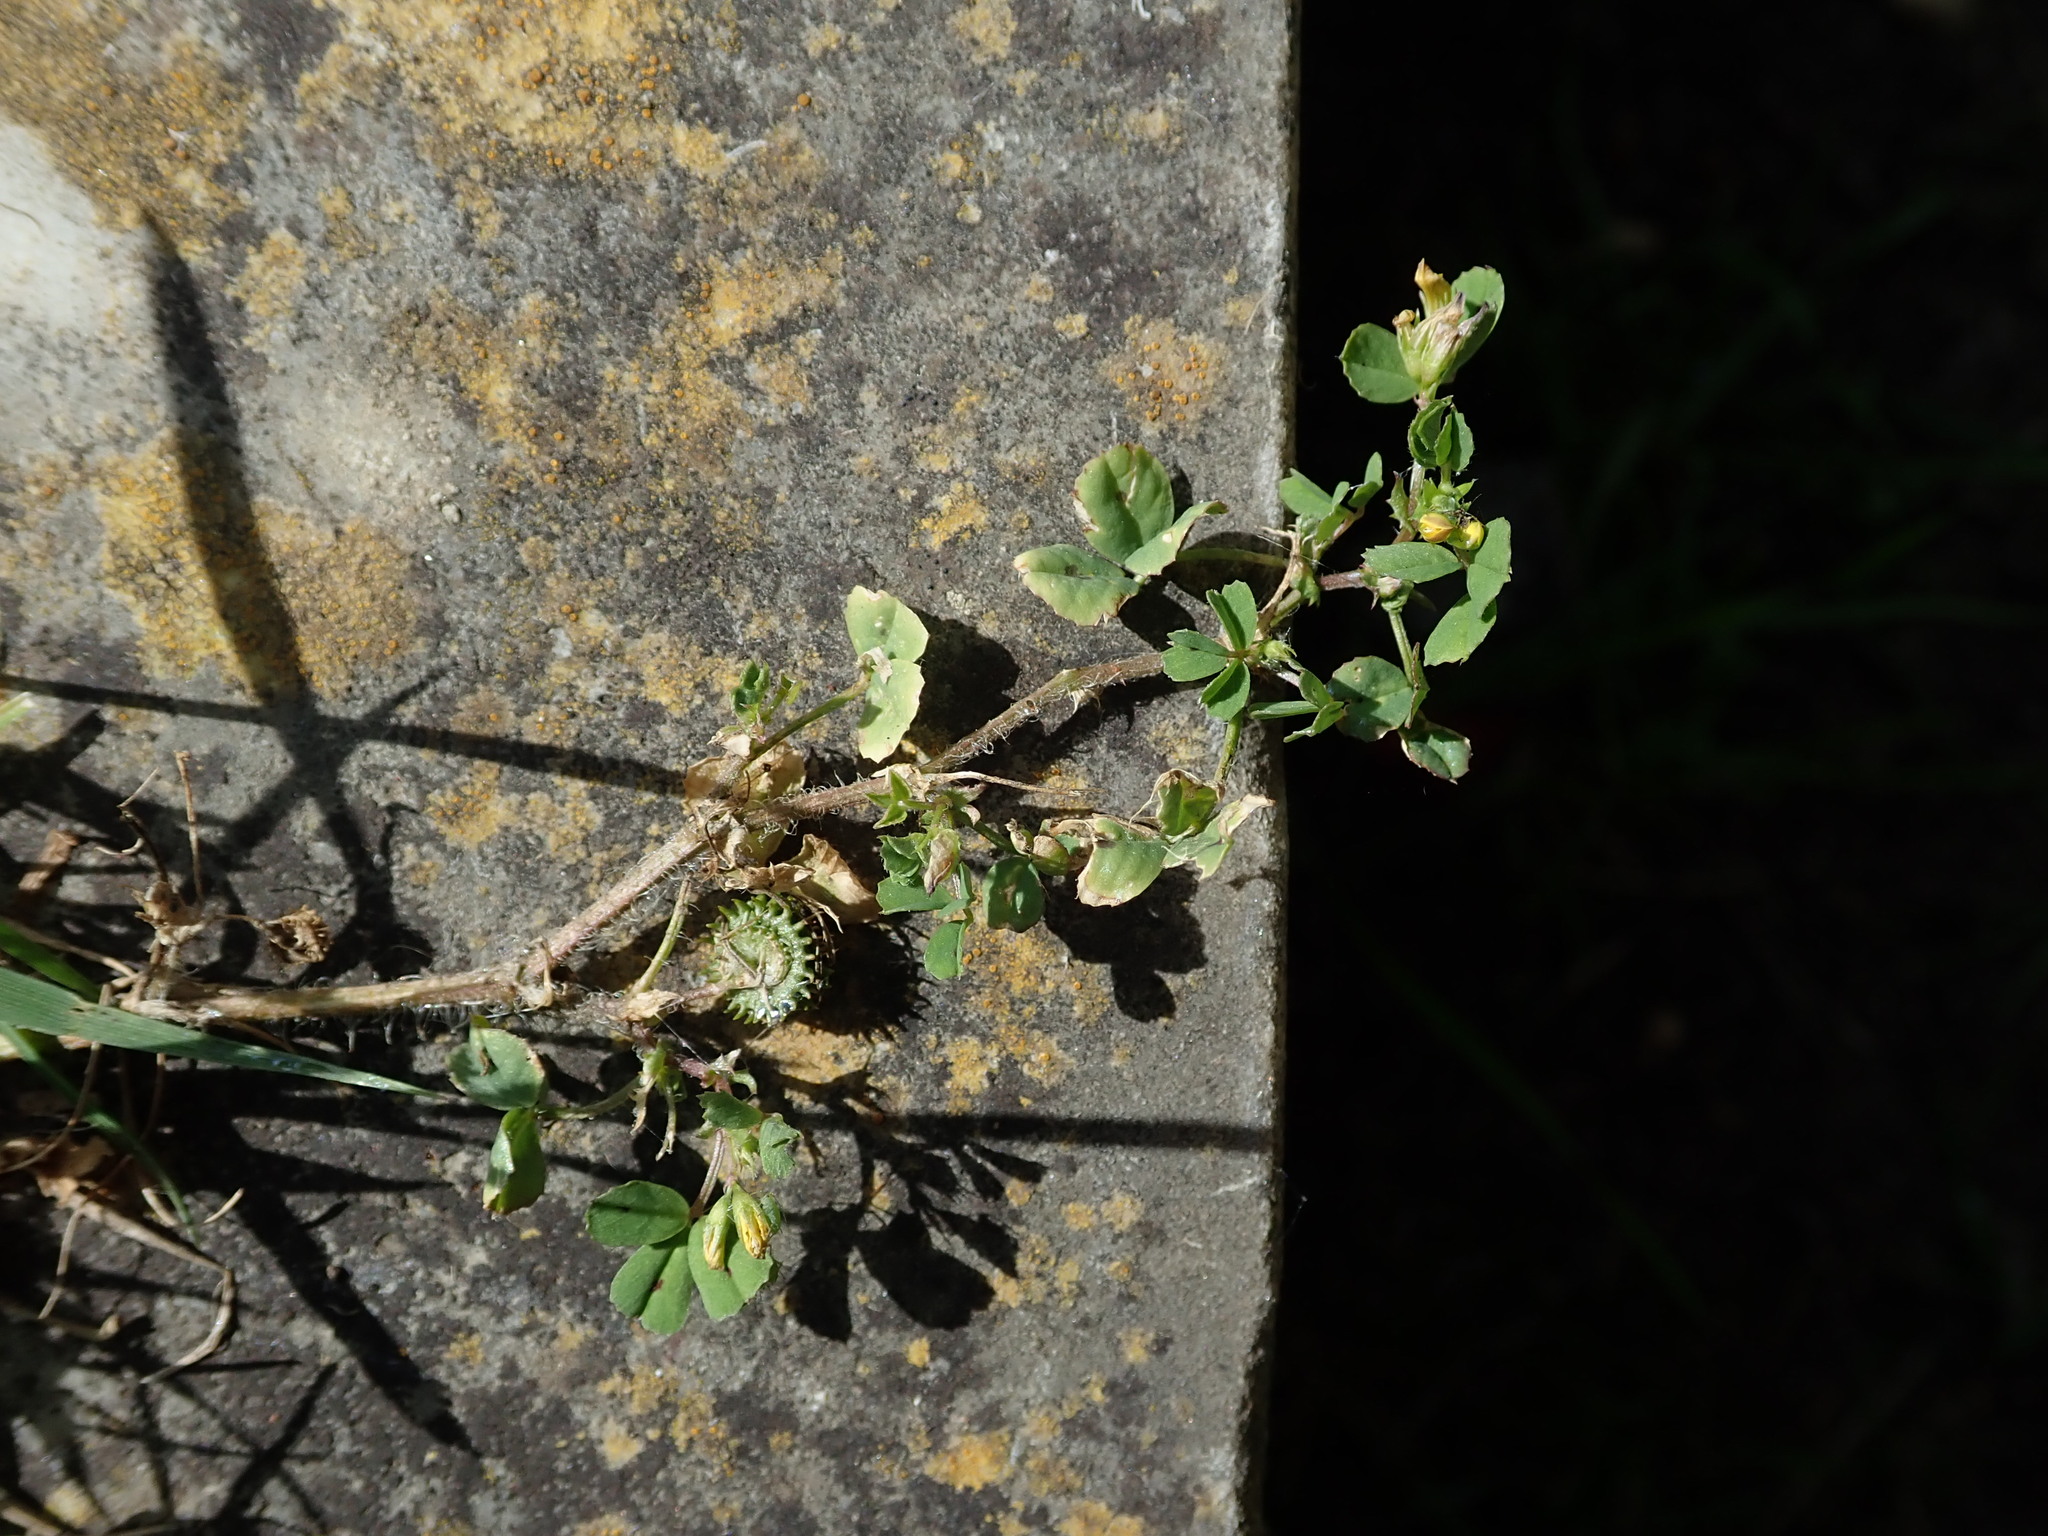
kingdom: Plantae
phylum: Tracheophyta
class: Magnoliopsida
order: Fabales
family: Fabaceae
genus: Medicago
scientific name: Medicago arabica
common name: Spotted medick
